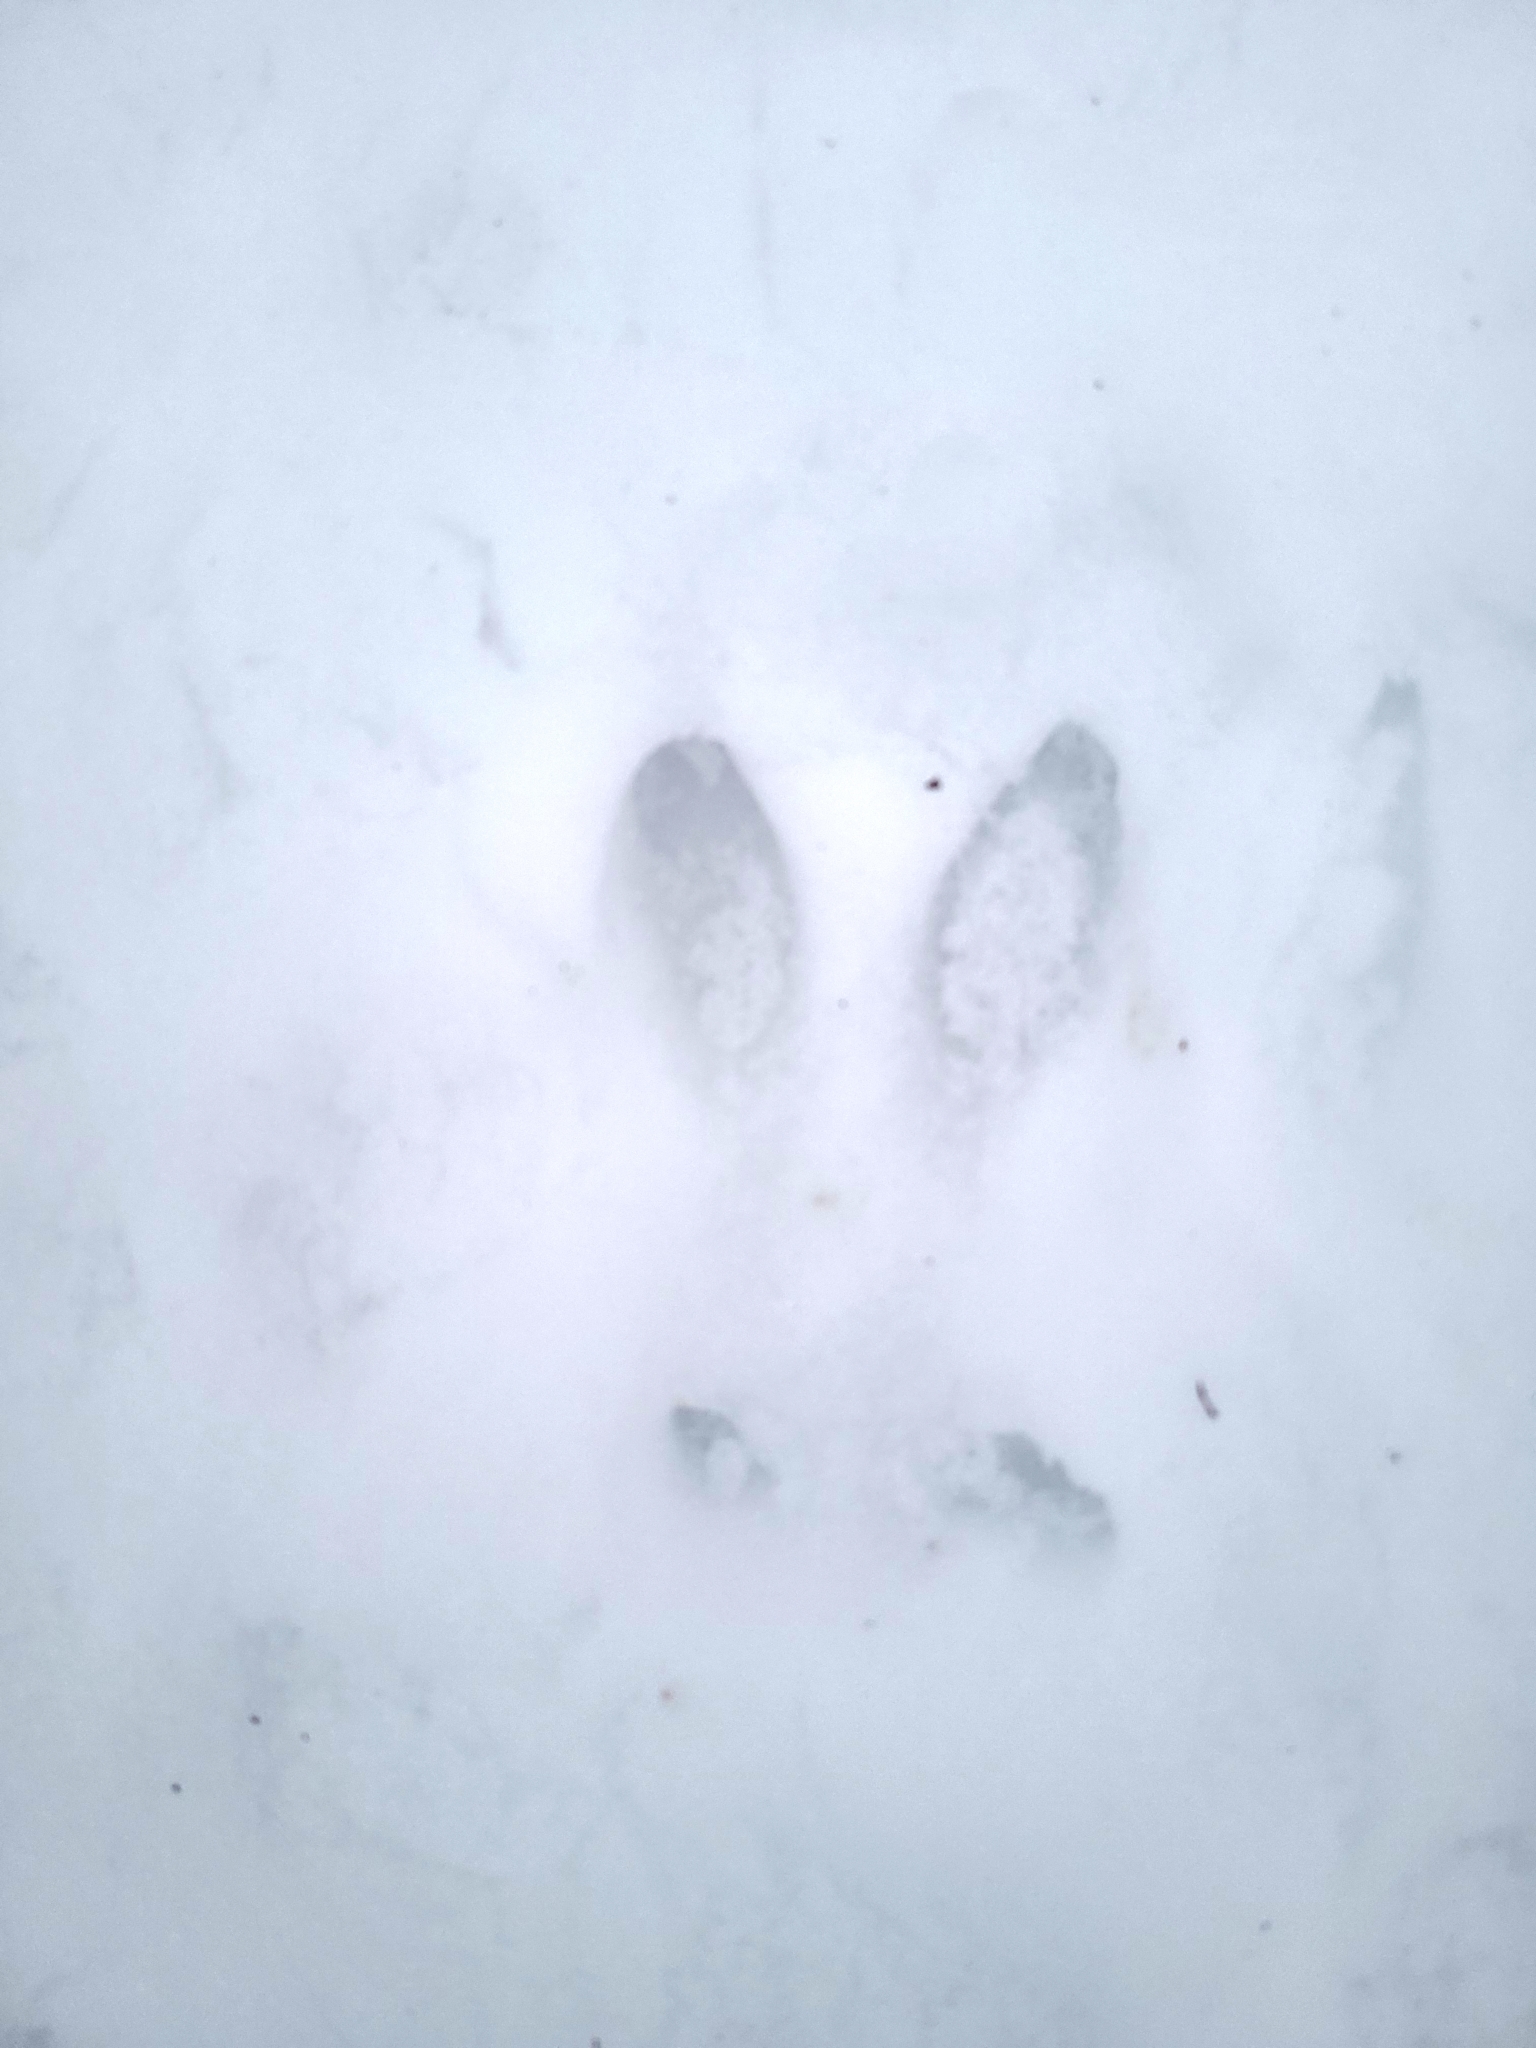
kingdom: Animalia
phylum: Chordata
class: Mammalia
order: Artiodactyla
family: Cervidae
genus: Odocoileus
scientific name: Odocoileus virginianus
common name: White-tailed deer
